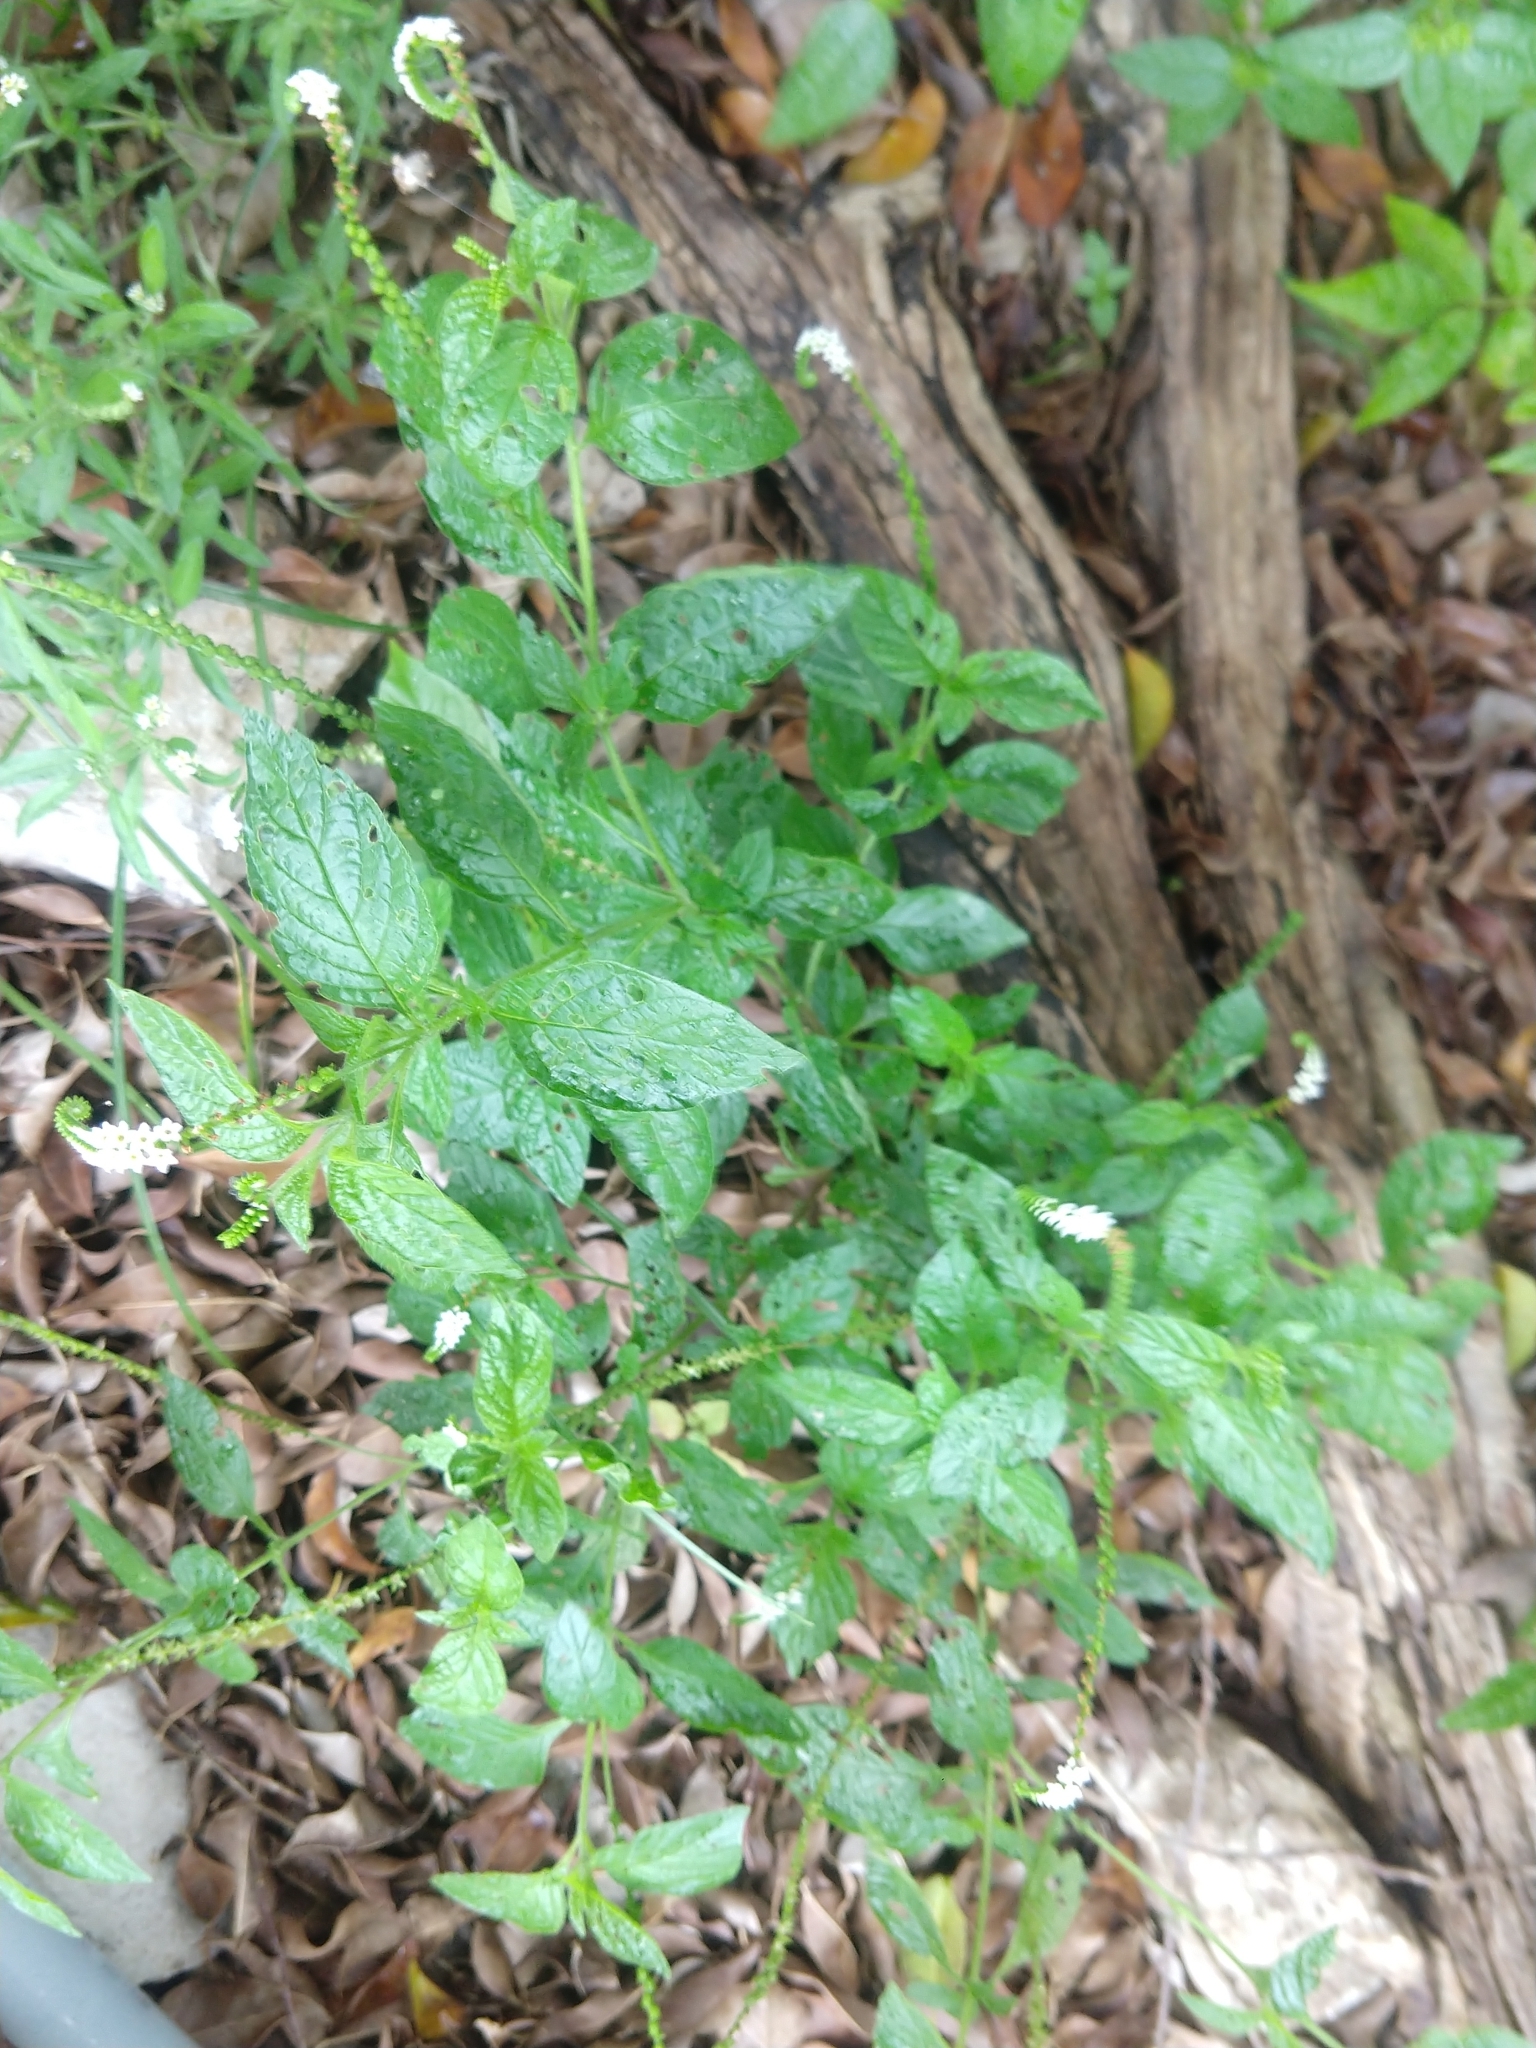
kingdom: Plantae
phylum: Tracheophyta
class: Magnoliopsida
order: Boraginales
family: Heliotropiaceae
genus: Heliotropium
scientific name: Heliotropium angiospermum
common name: Eye bright
